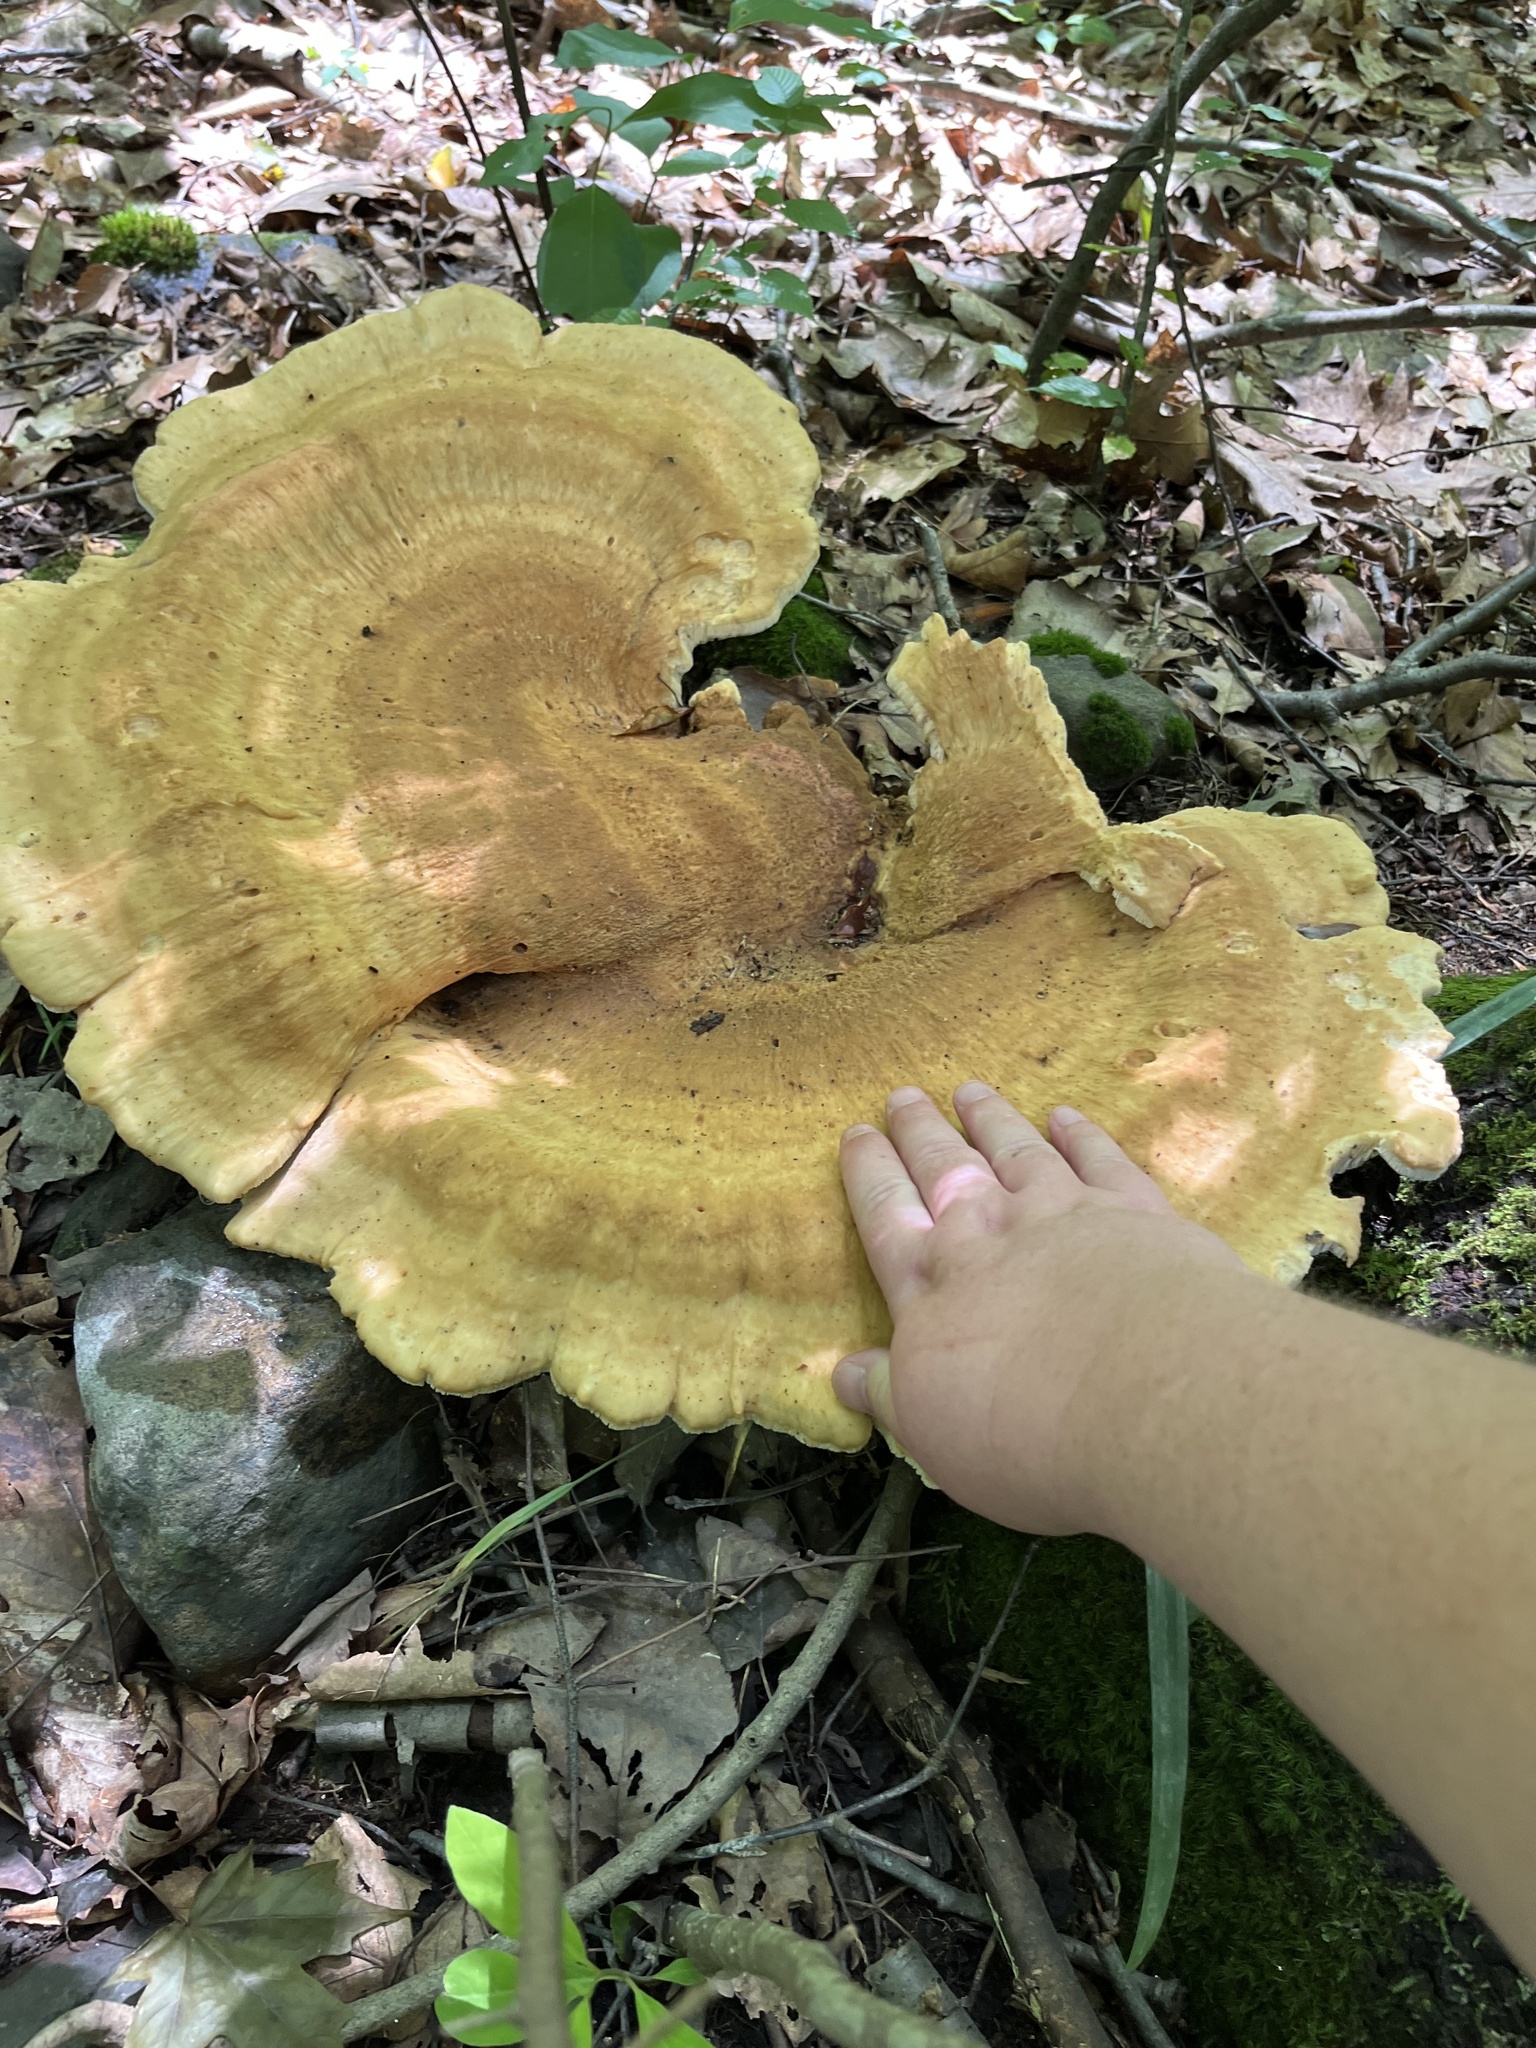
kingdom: Fungi
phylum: Basidiomycota
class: Agaricomycetes
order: Russulales
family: Bondarzewiaceae
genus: Bondarzewia
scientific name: Bondarzewia berkeleyi
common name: Berkeley's polypore
